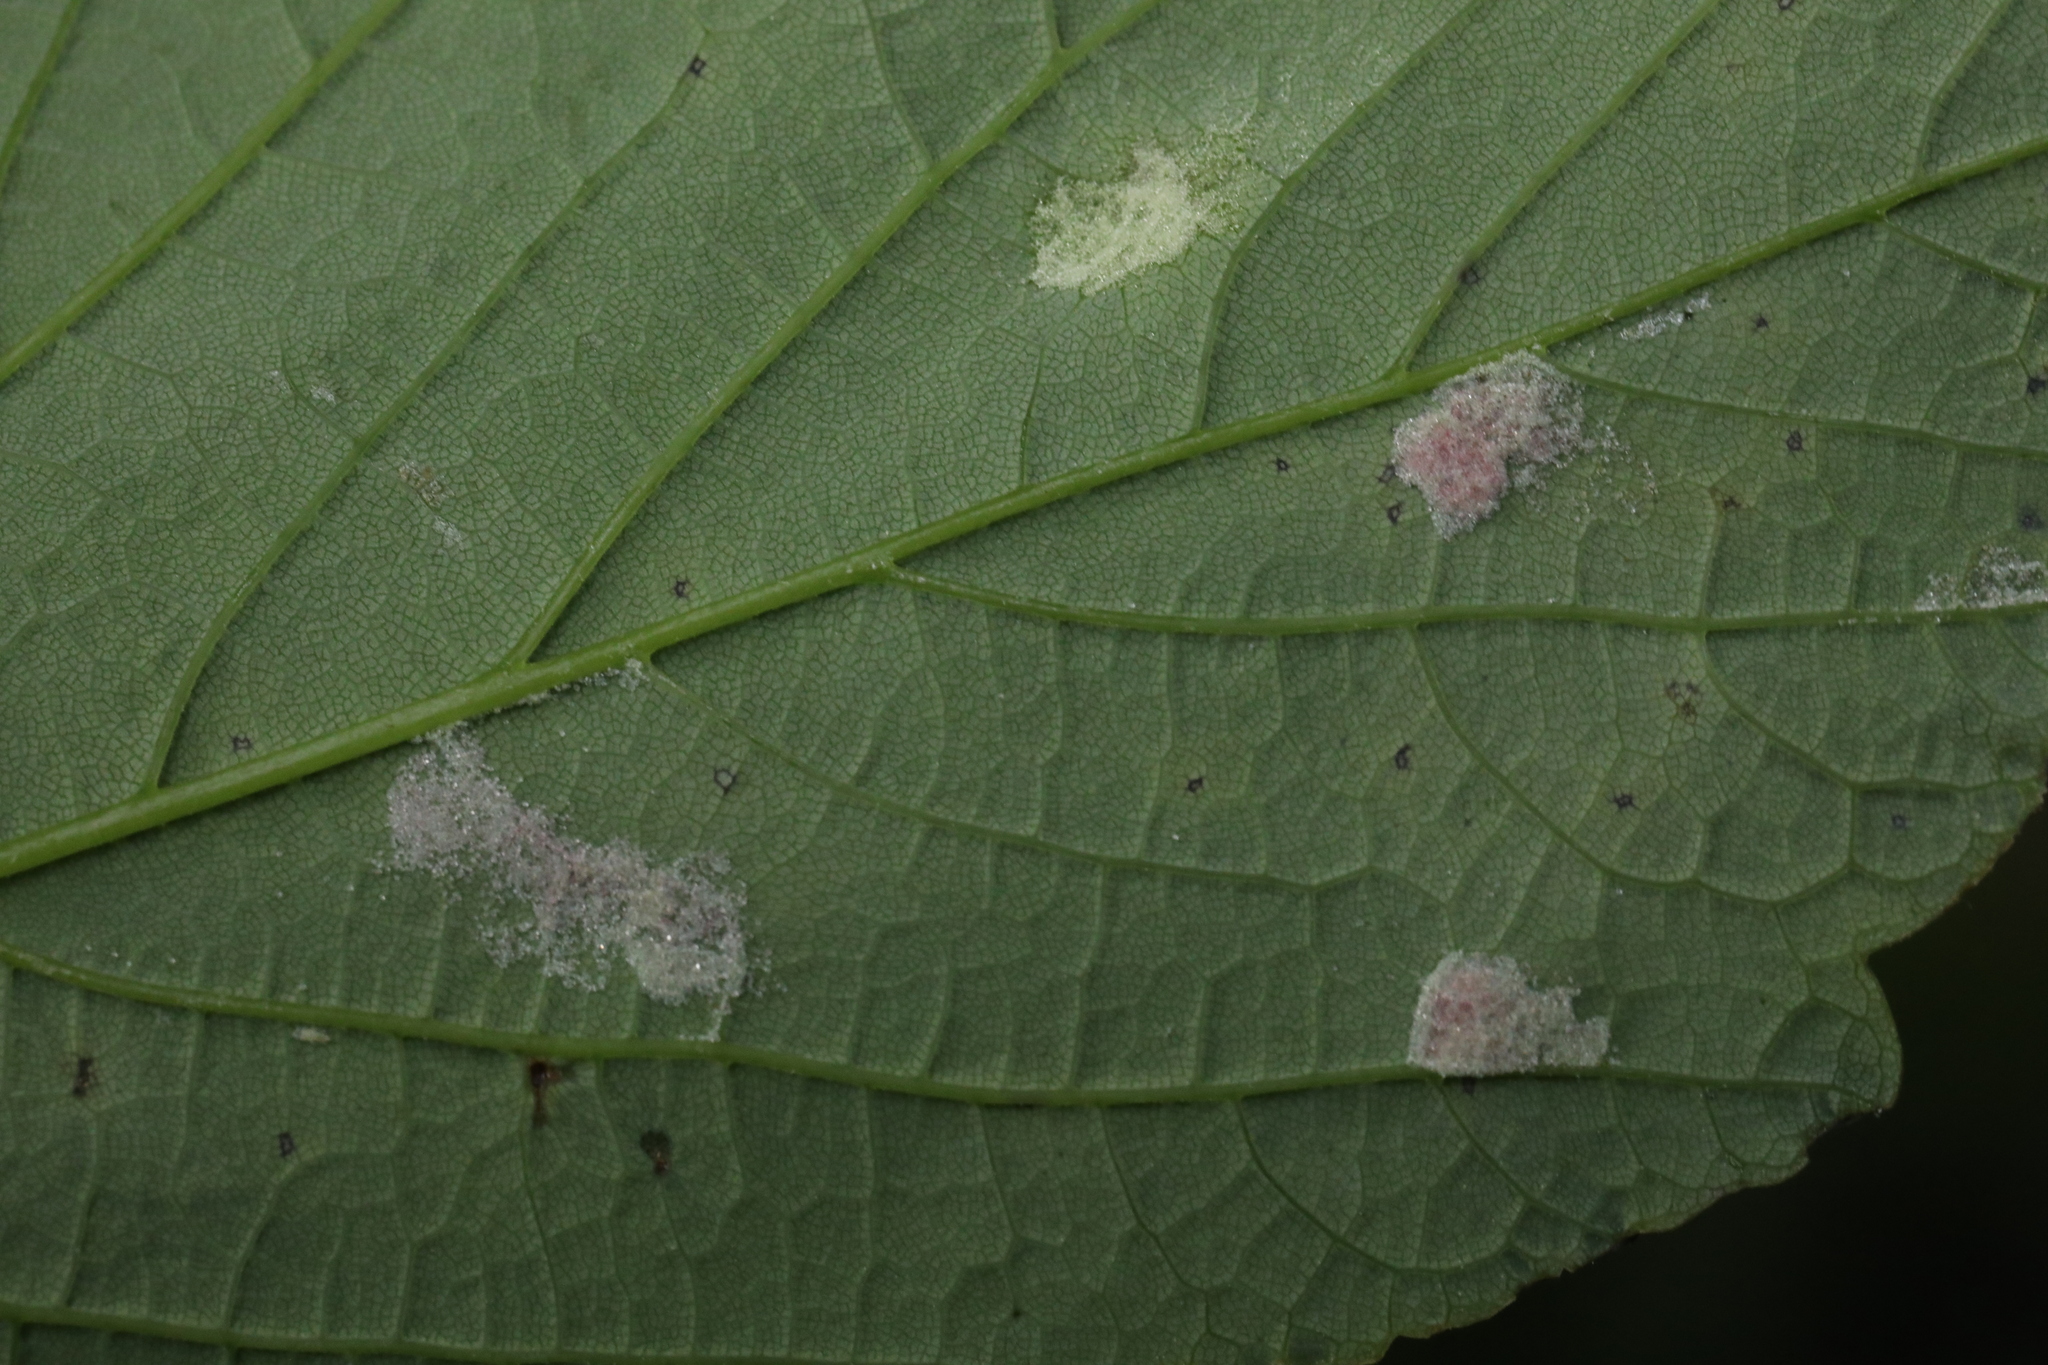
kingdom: Animalia
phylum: Arthropoda
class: Arachnida
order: Trombidiformes
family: Eriophyidae
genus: Aceria
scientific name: Aceria pseudoplatani
